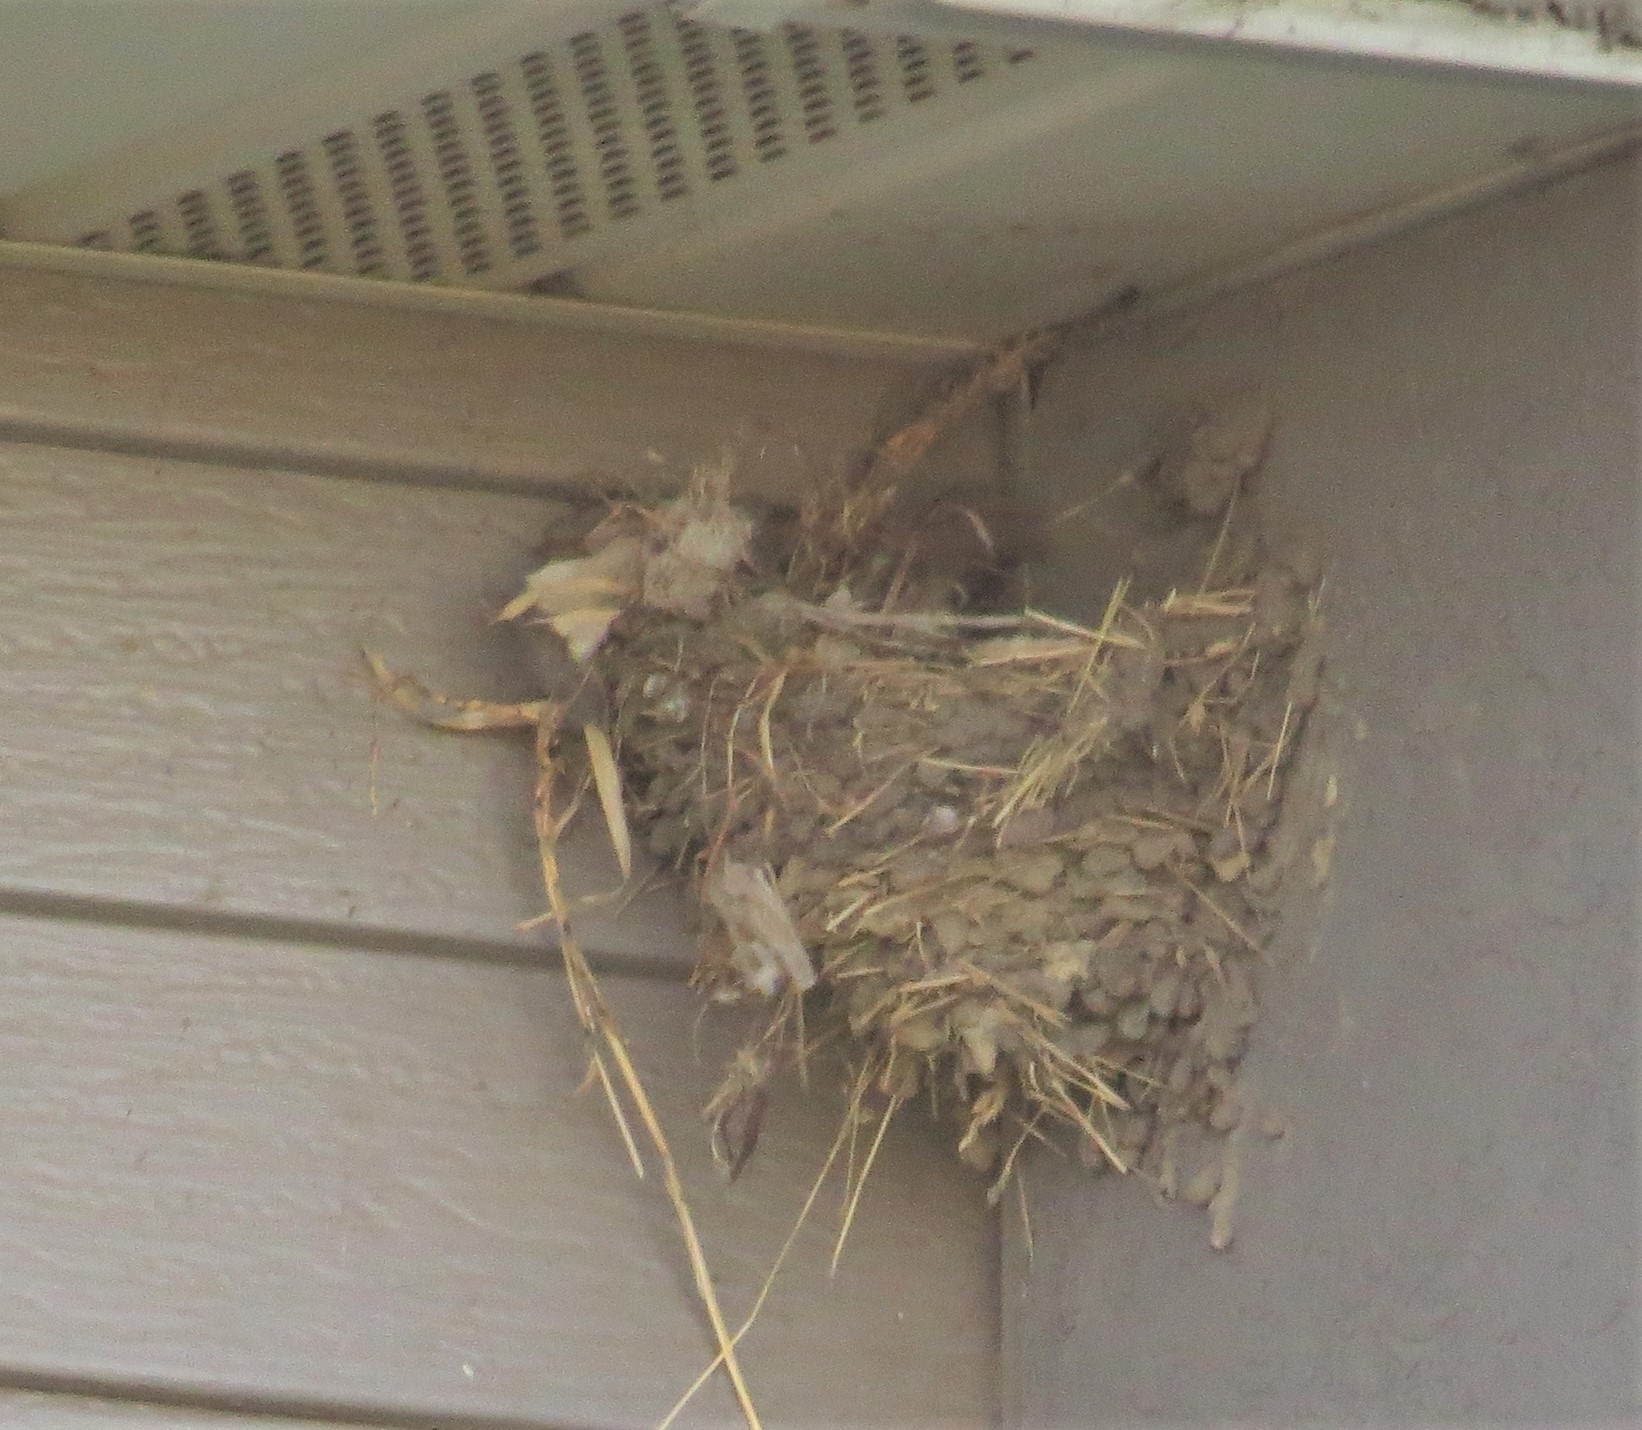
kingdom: Animalia
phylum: Chordata
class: Aves
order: Passeriformes
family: Hirundinidae
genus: Hirundo
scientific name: Hirundo rustica
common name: Barn swallow
